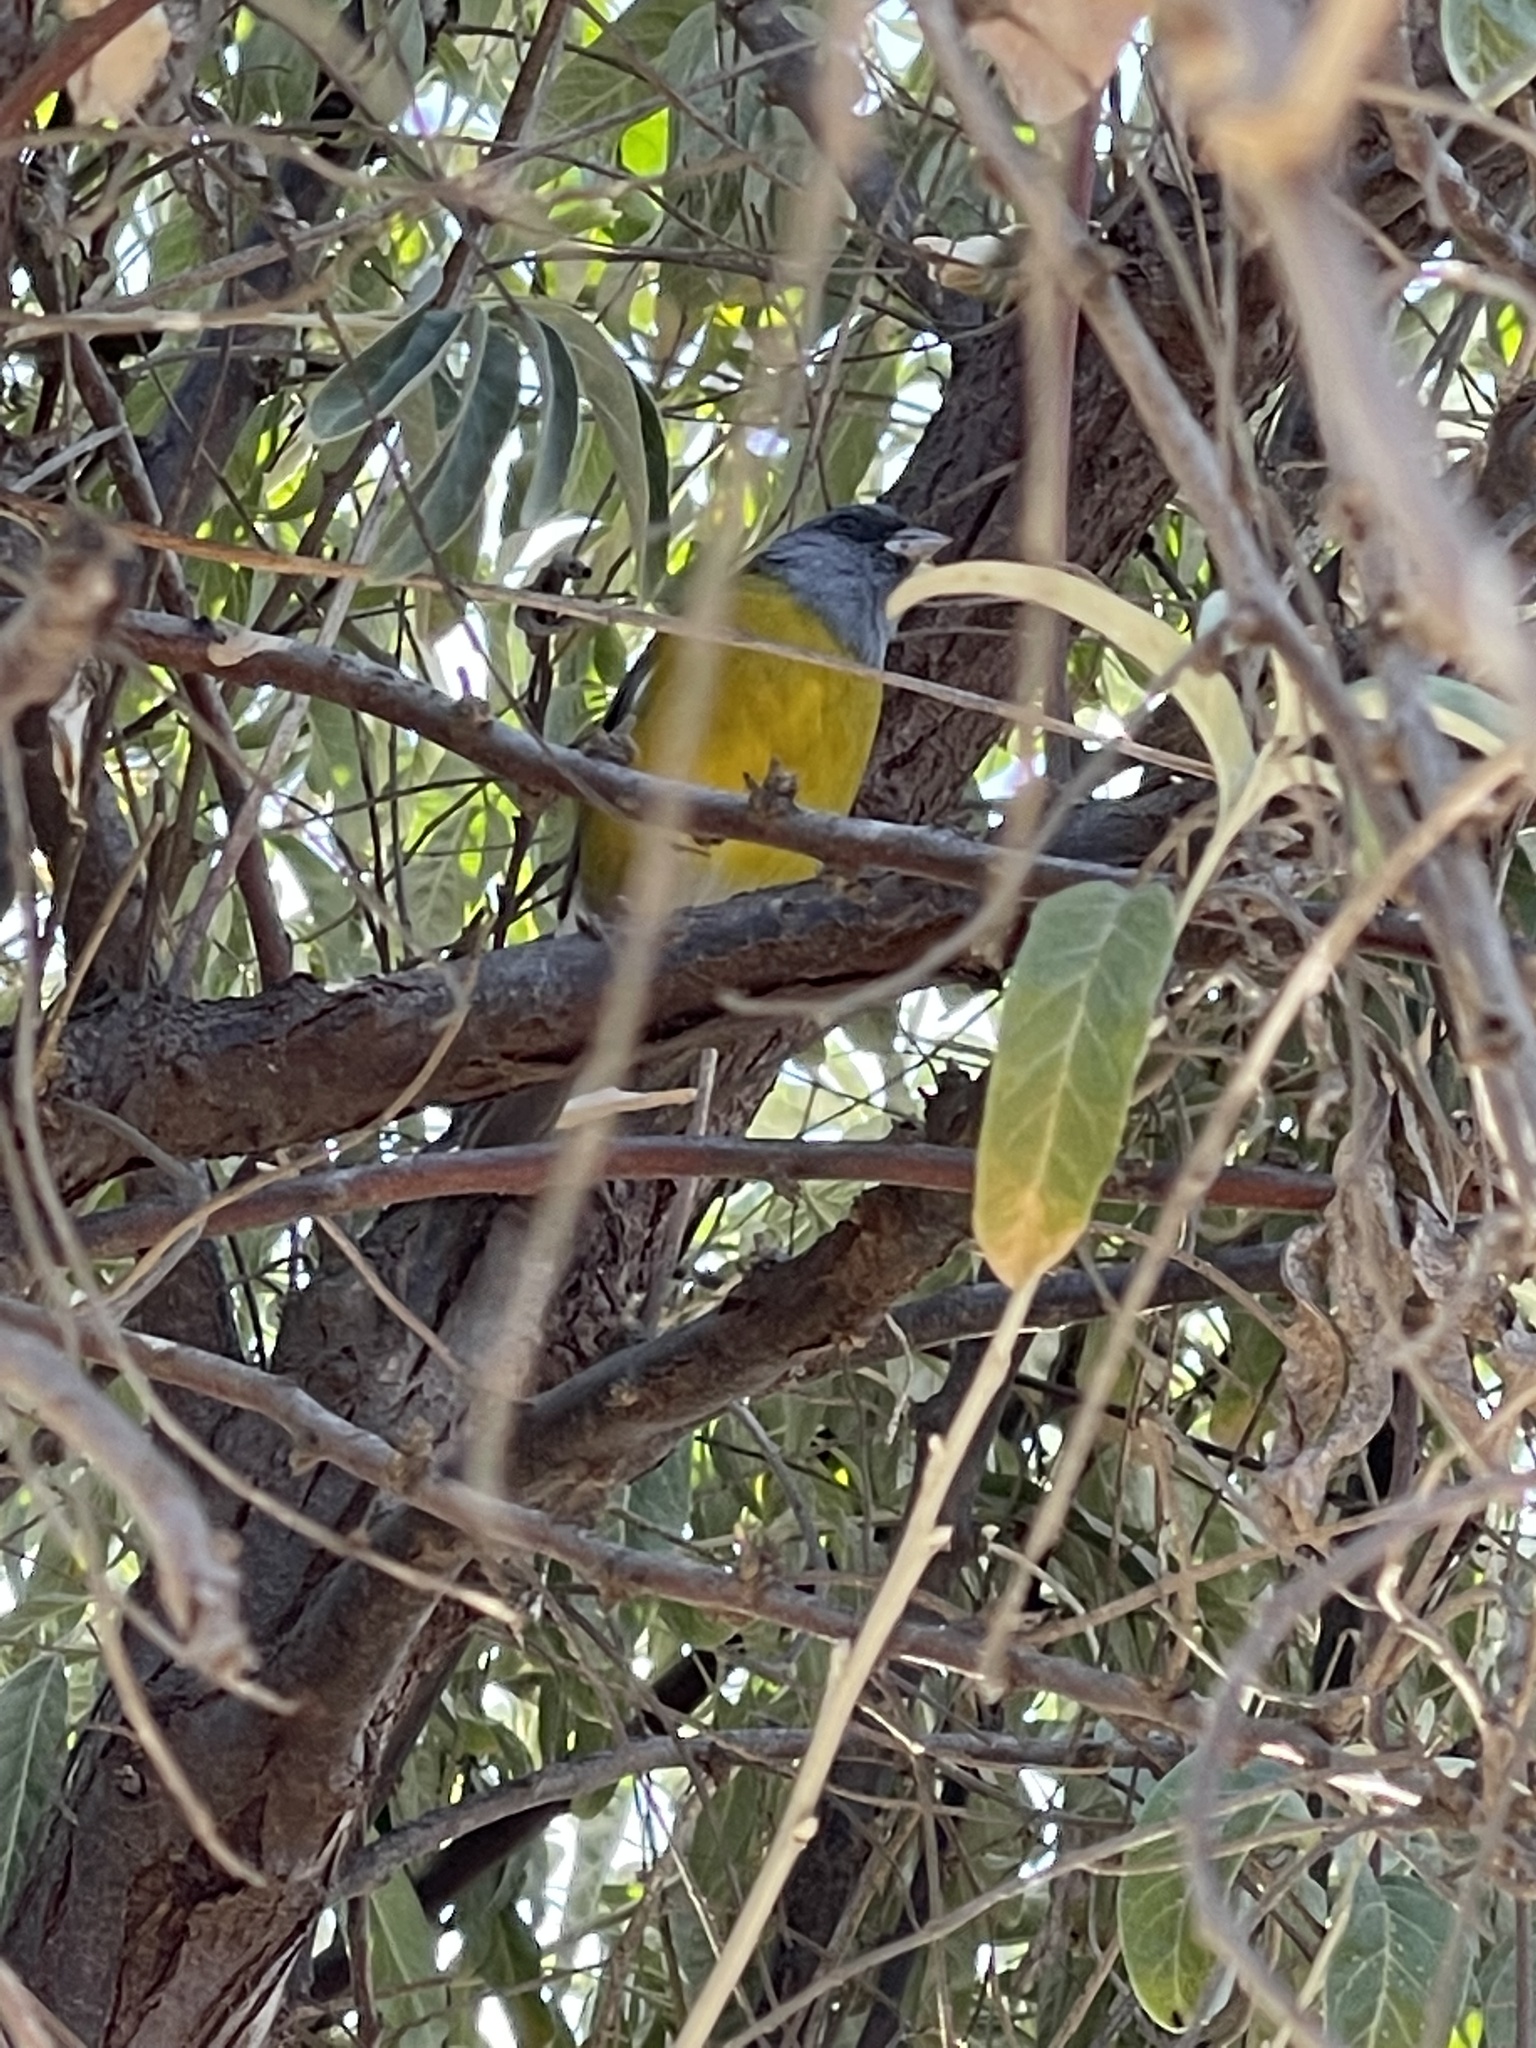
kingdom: Animalia
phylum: Chordata
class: Aves
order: Passeriformes
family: Thraupidae
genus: Phrygilus
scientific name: Phrygilus gayi
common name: Grey-hooded sierra finch
